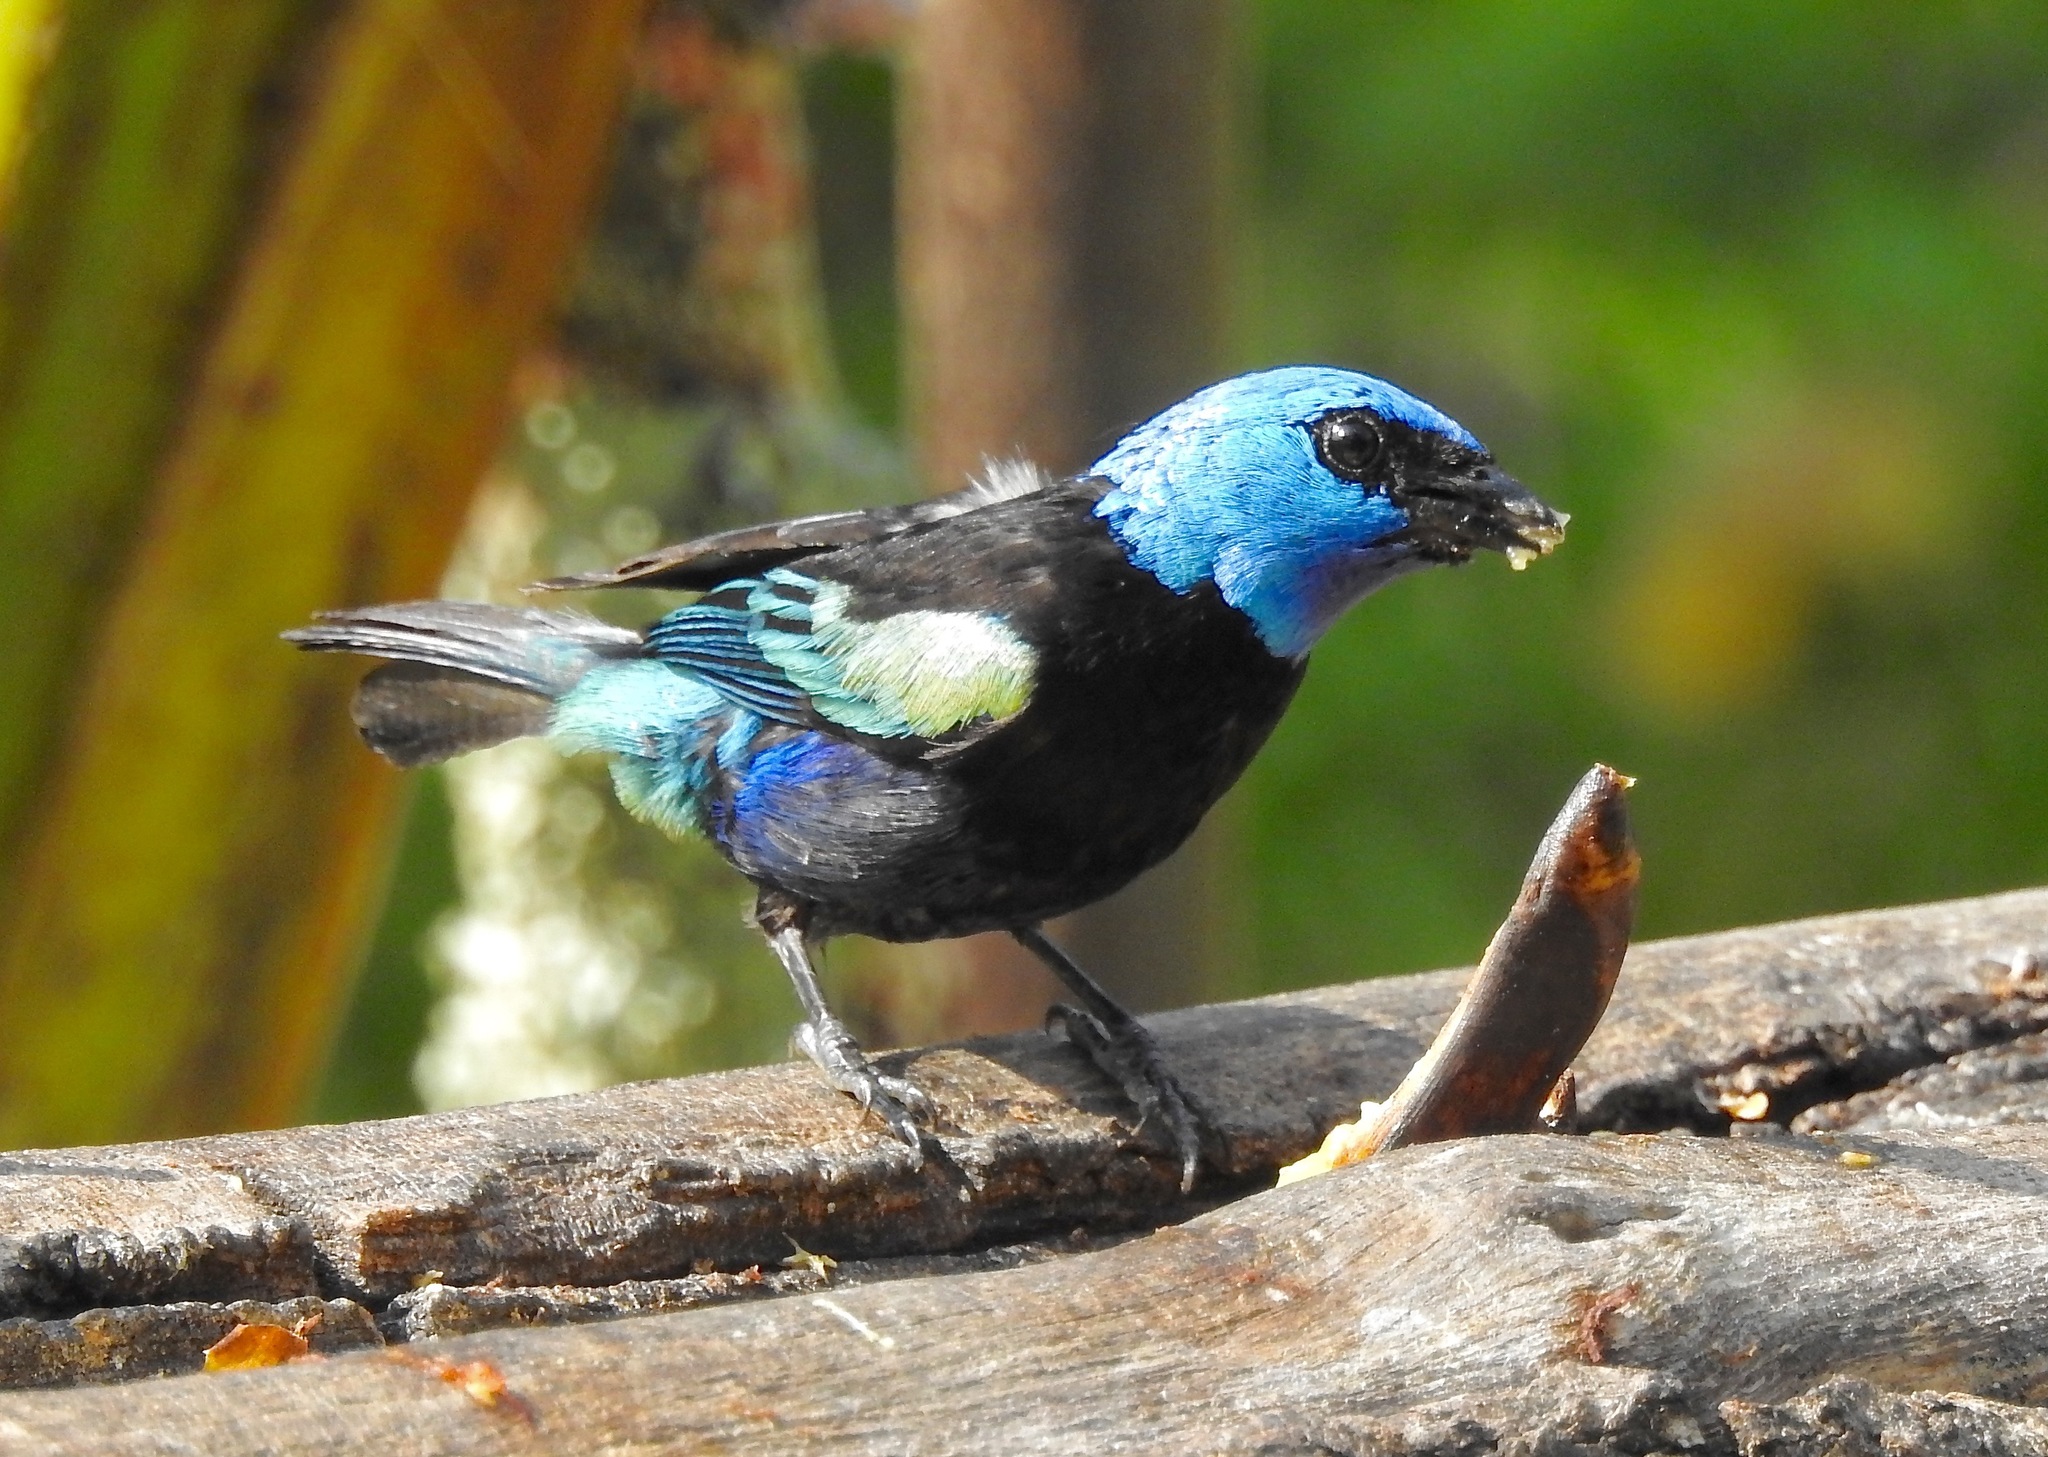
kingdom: Animalia
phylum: Chordata
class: Aves
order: Passeriformes
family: Thraupidae
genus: Stilpnia
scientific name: Stilpnia cyanicollis
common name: Blue-necked tanager
